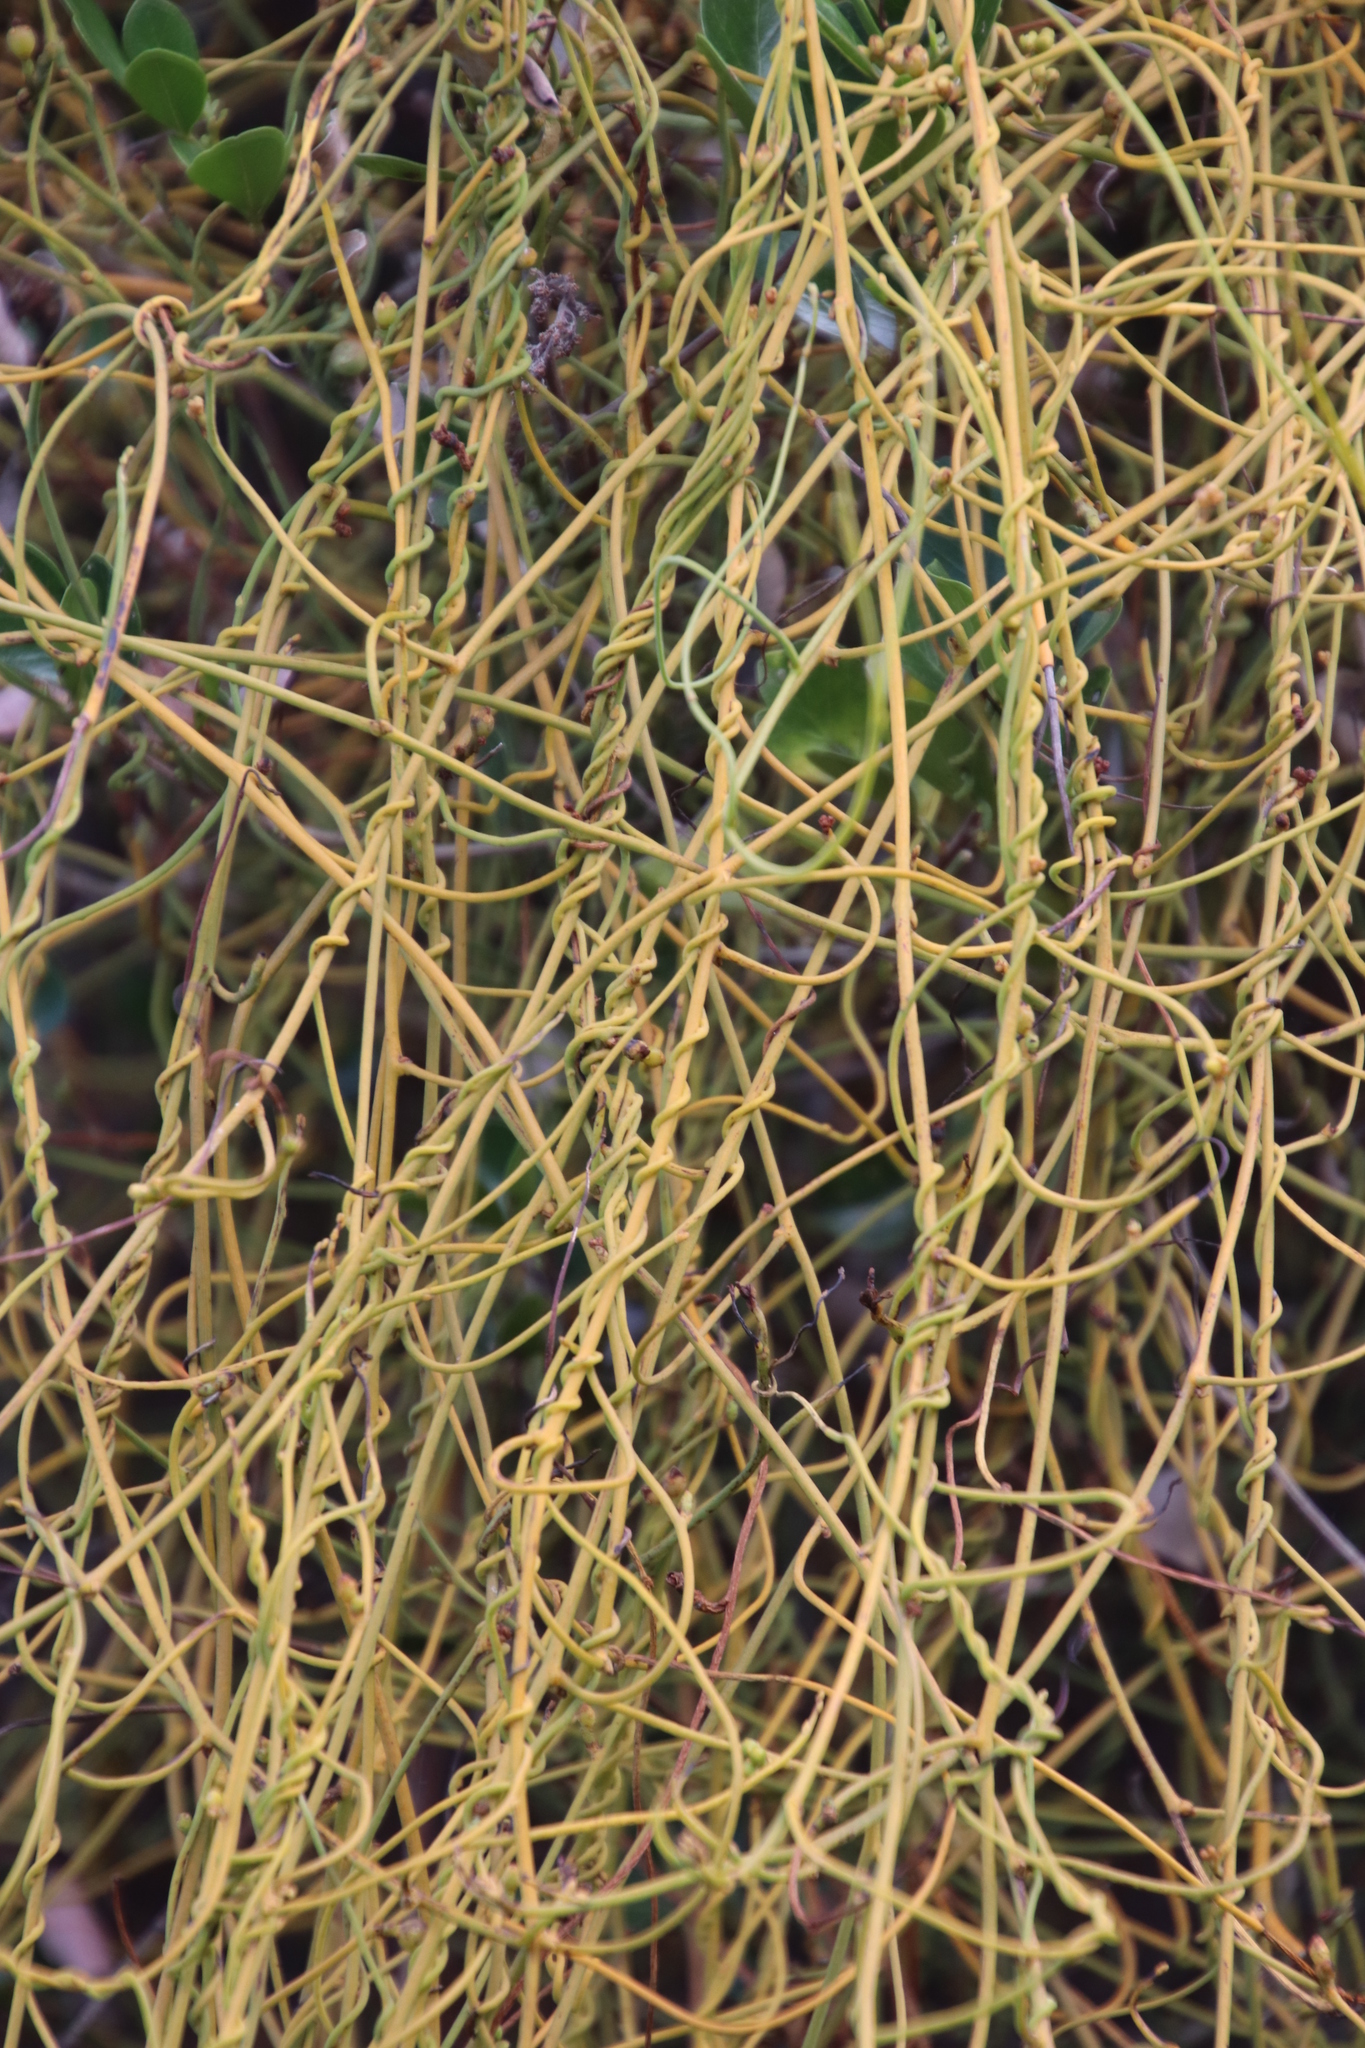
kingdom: Plantae
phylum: Tracheophyta
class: Magnoliopsida
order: Laurales
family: Lauraceae
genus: Cassytha
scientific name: Cassytha ciliolata
